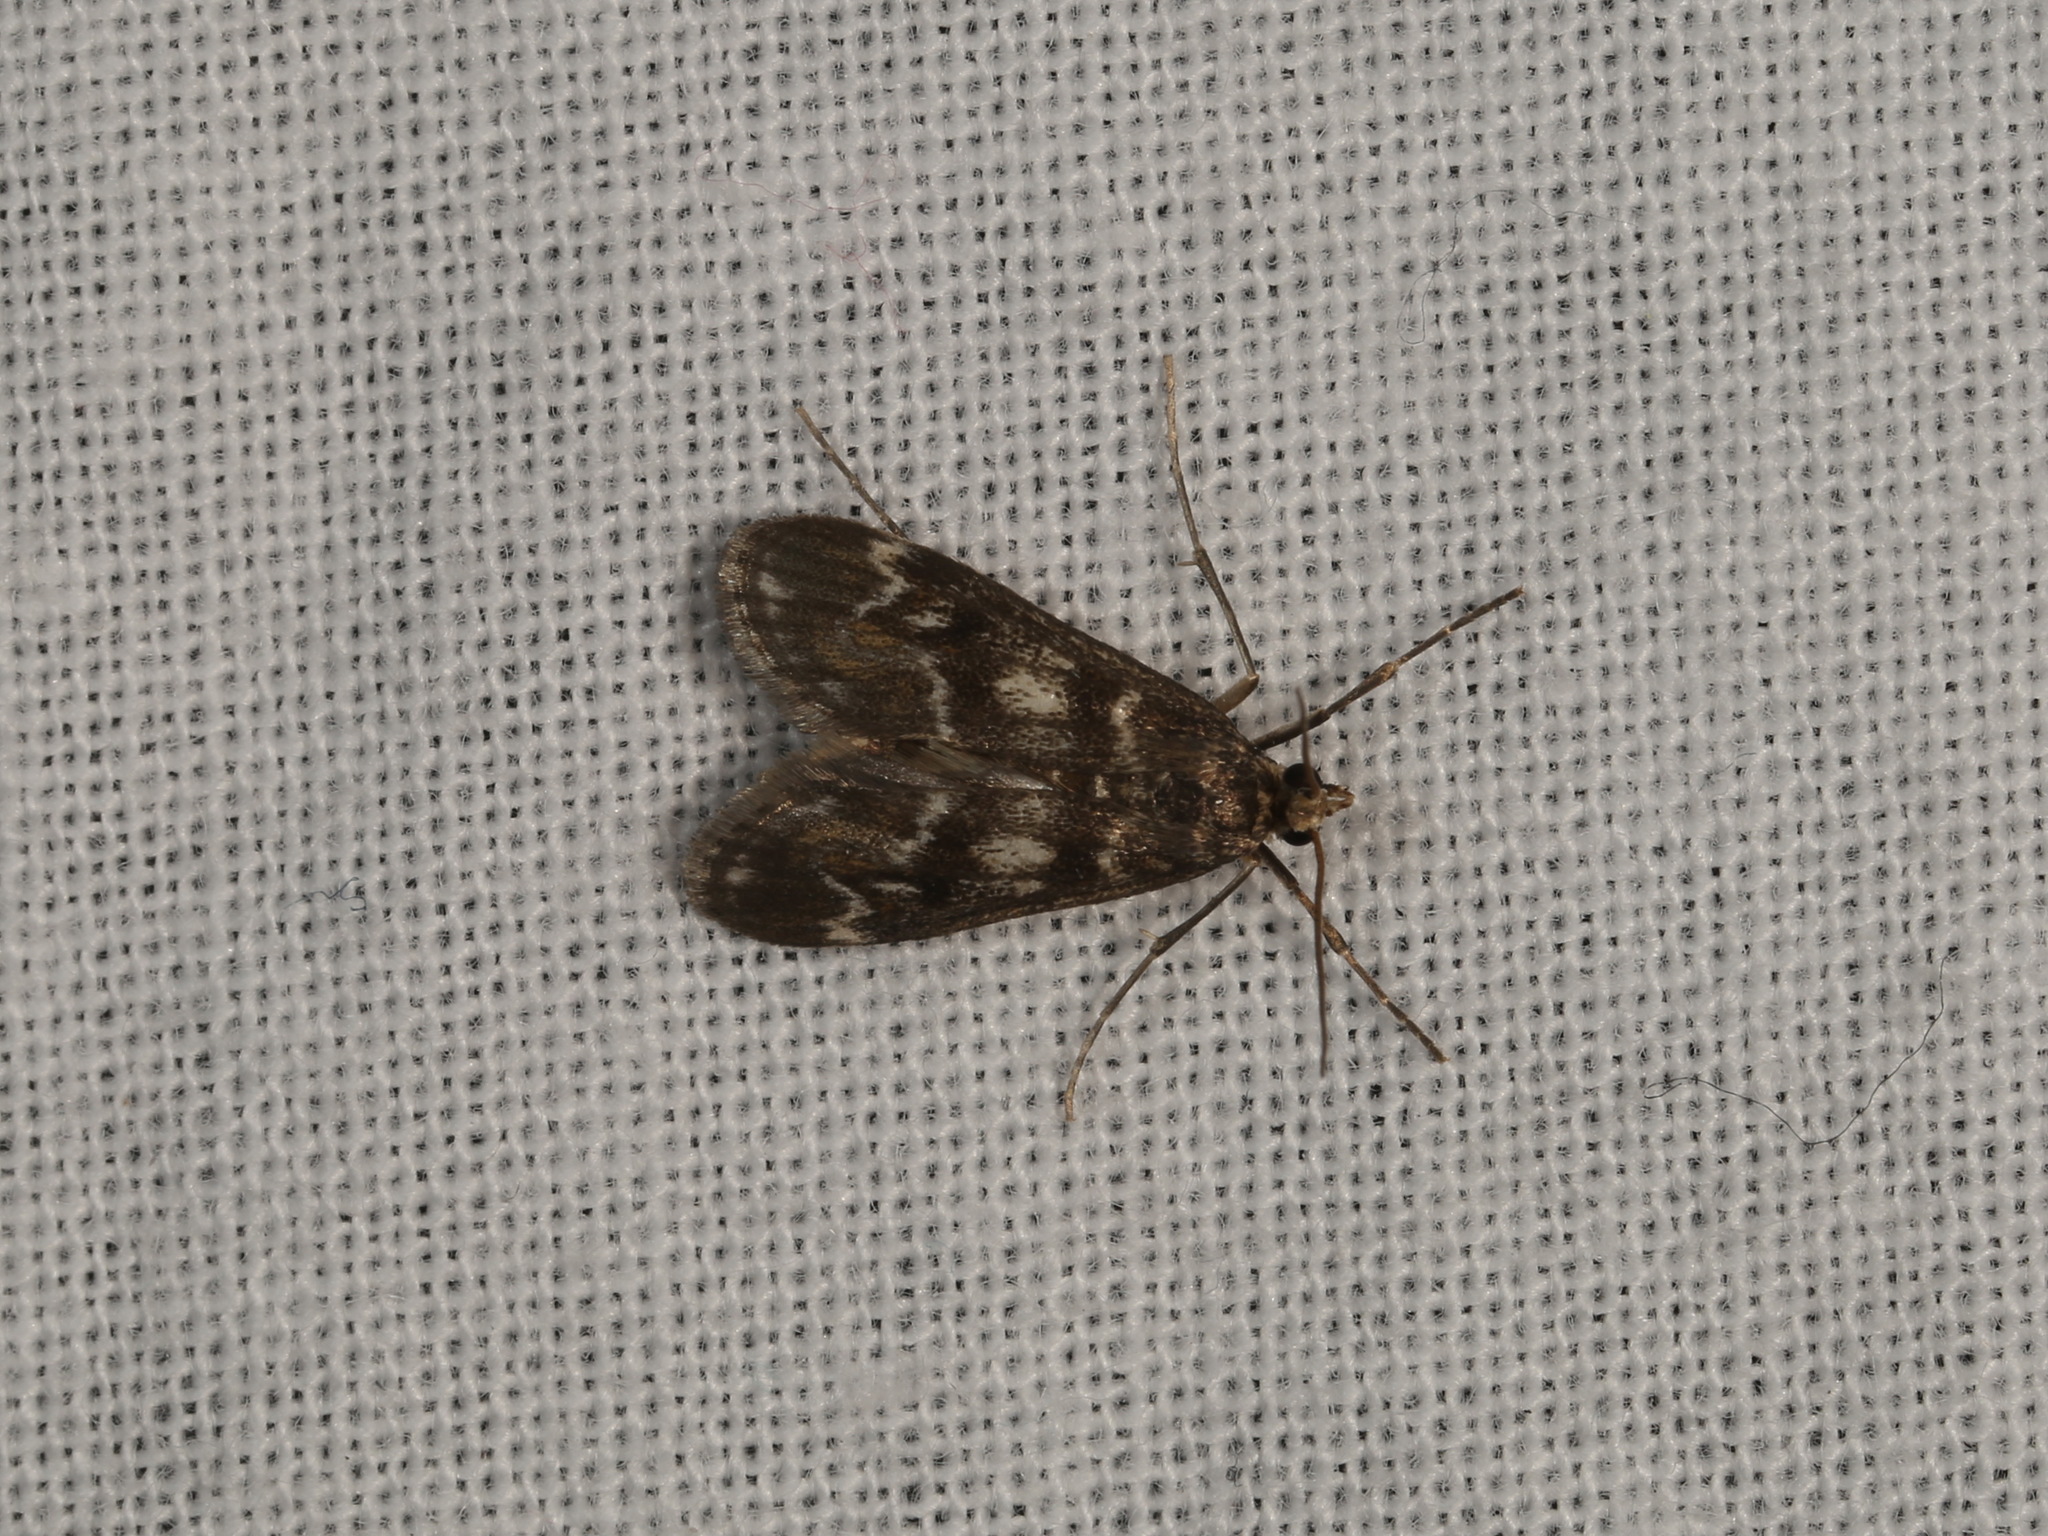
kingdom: Animalia
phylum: Arthropoda
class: Insecta
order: Lepidoptera
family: Crambidae
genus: Hygraula
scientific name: Hygraula nitens
